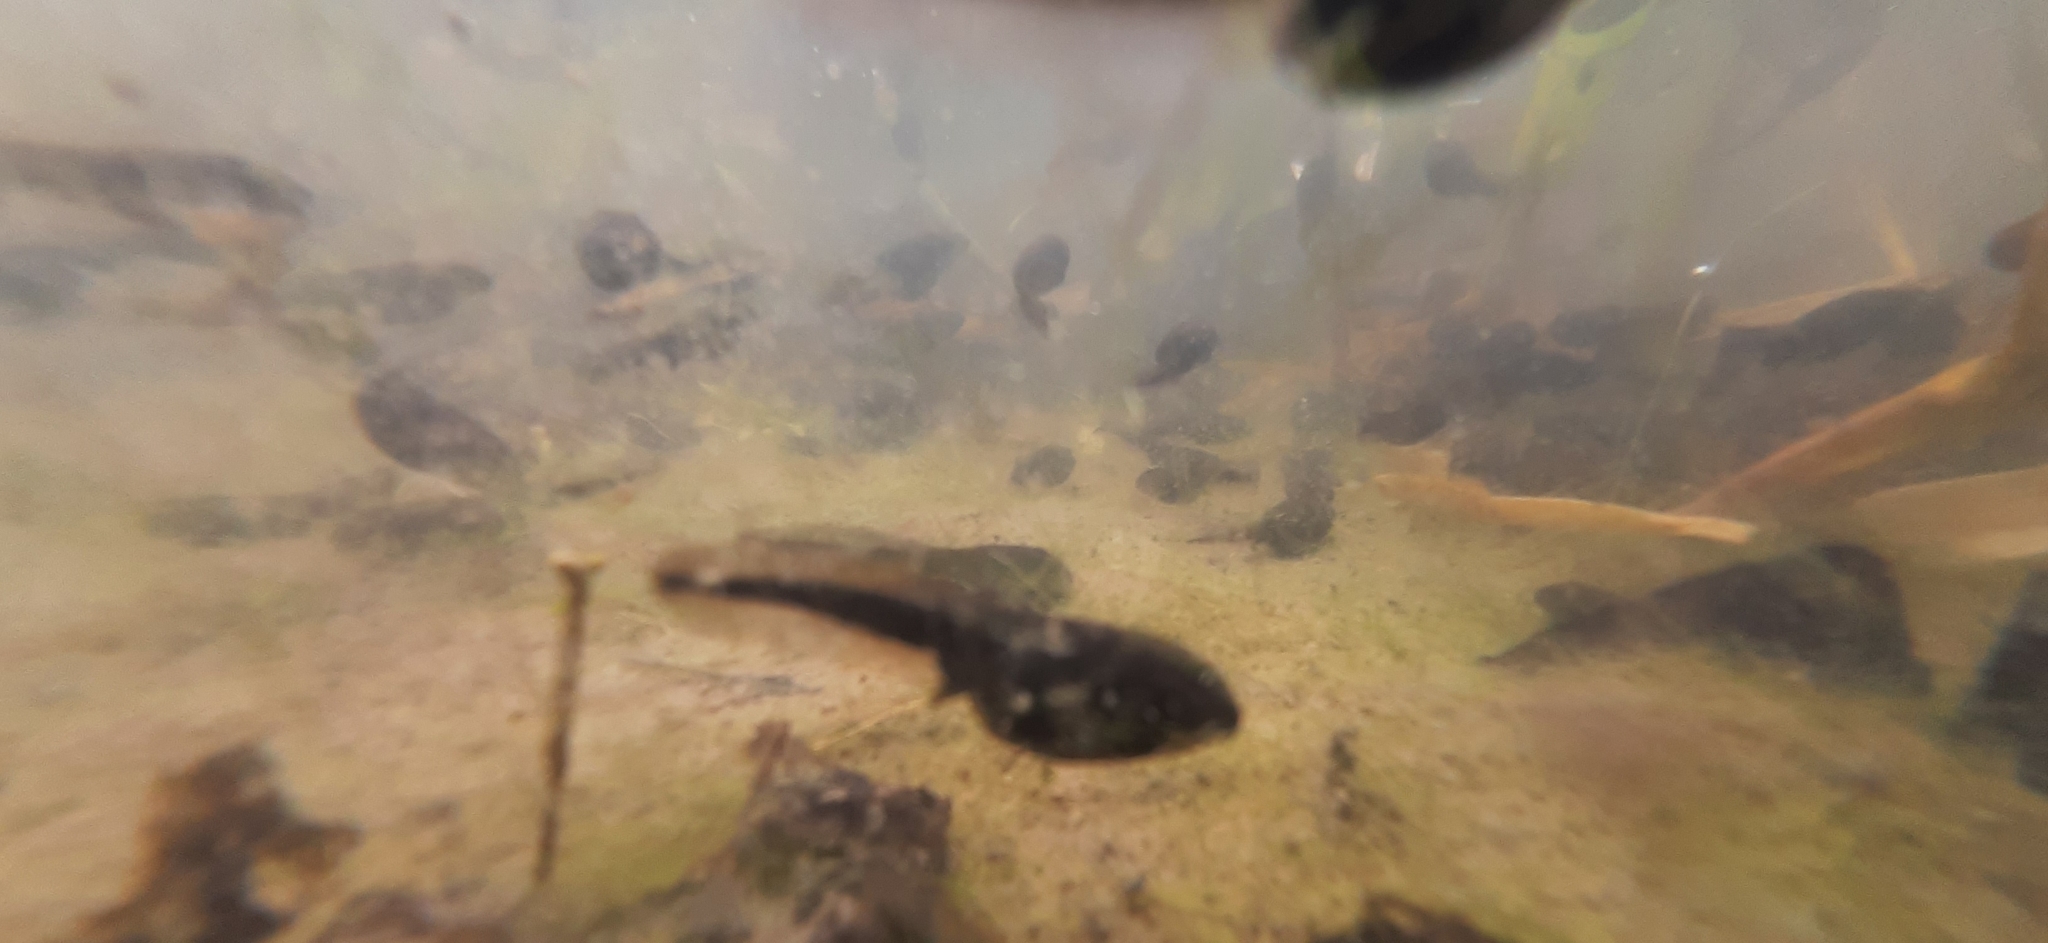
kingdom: Animalia
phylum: Chordata
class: Amphibia
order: Anura
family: Bufonidae
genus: Bufo
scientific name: Bufo bufo
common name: Common toad
